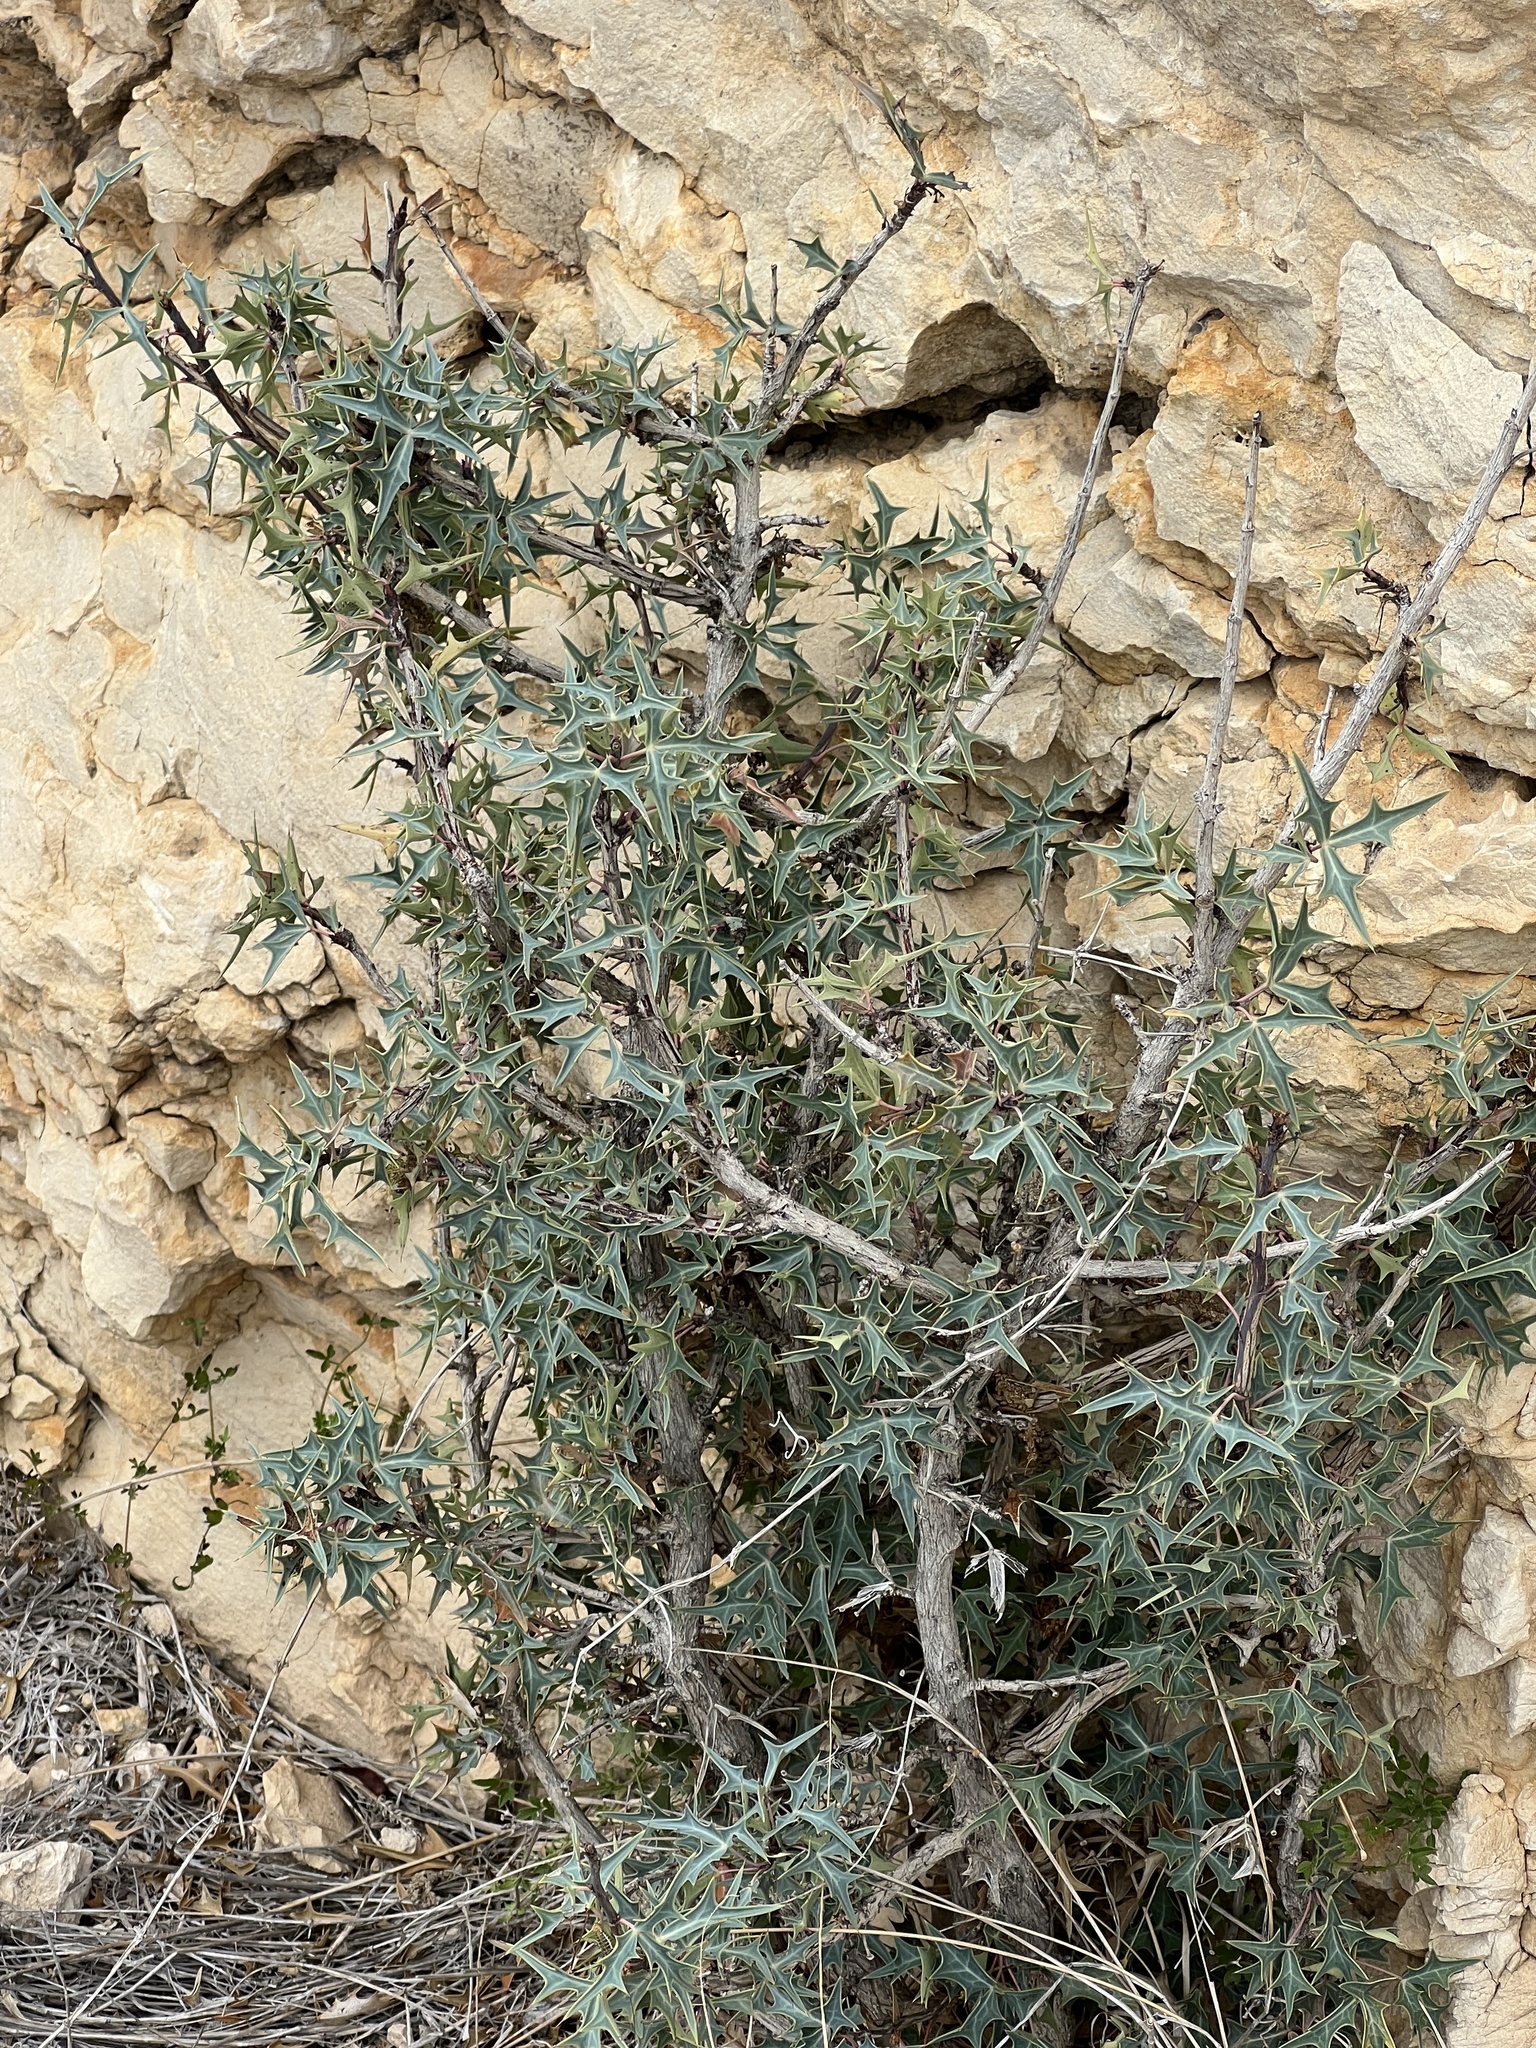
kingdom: Plantae
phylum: Tracheophyta
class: Magnoliopsida
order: Ranunculales
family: Berberidaceae
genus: Alloberberis
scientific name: Alloberberis trifoliolata
